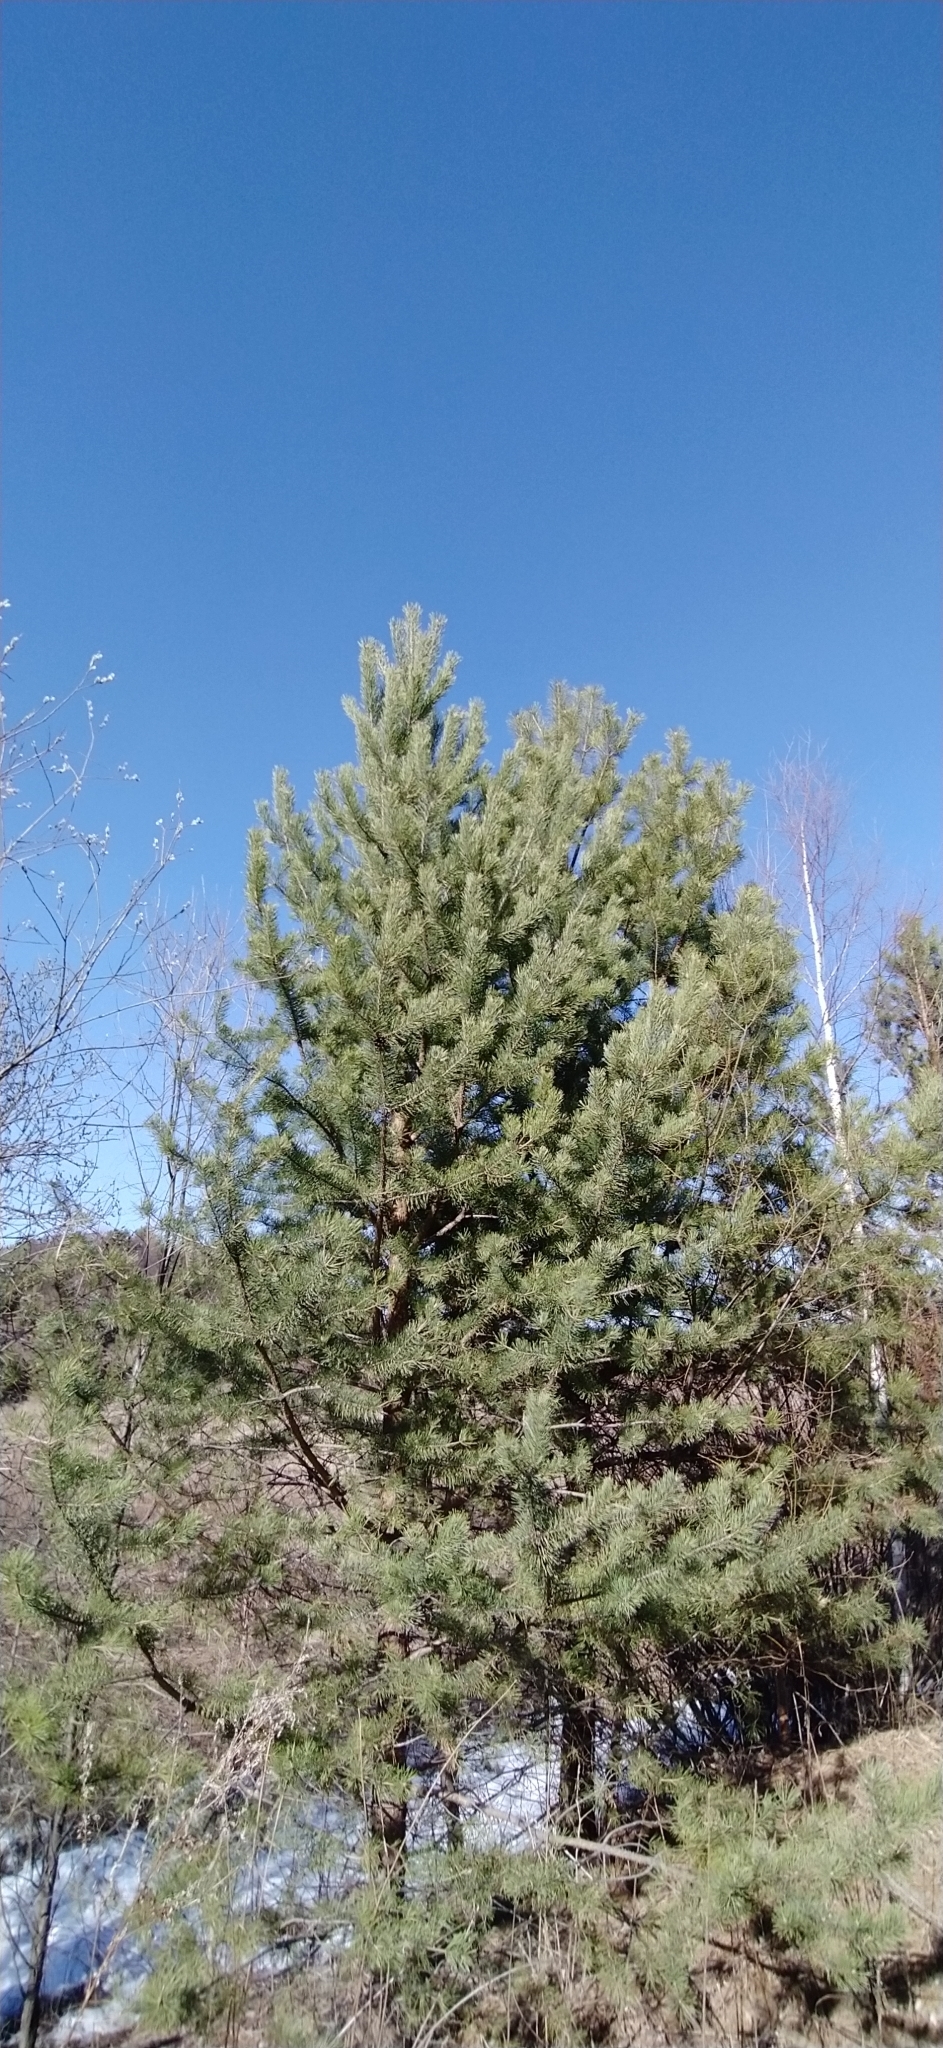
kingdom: Plantae
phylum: Tracheophyta
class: Pinopsida
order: Pinales
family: Pinaceae
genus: Pinus
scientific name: Pinus sylvestris
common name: Scots pine
